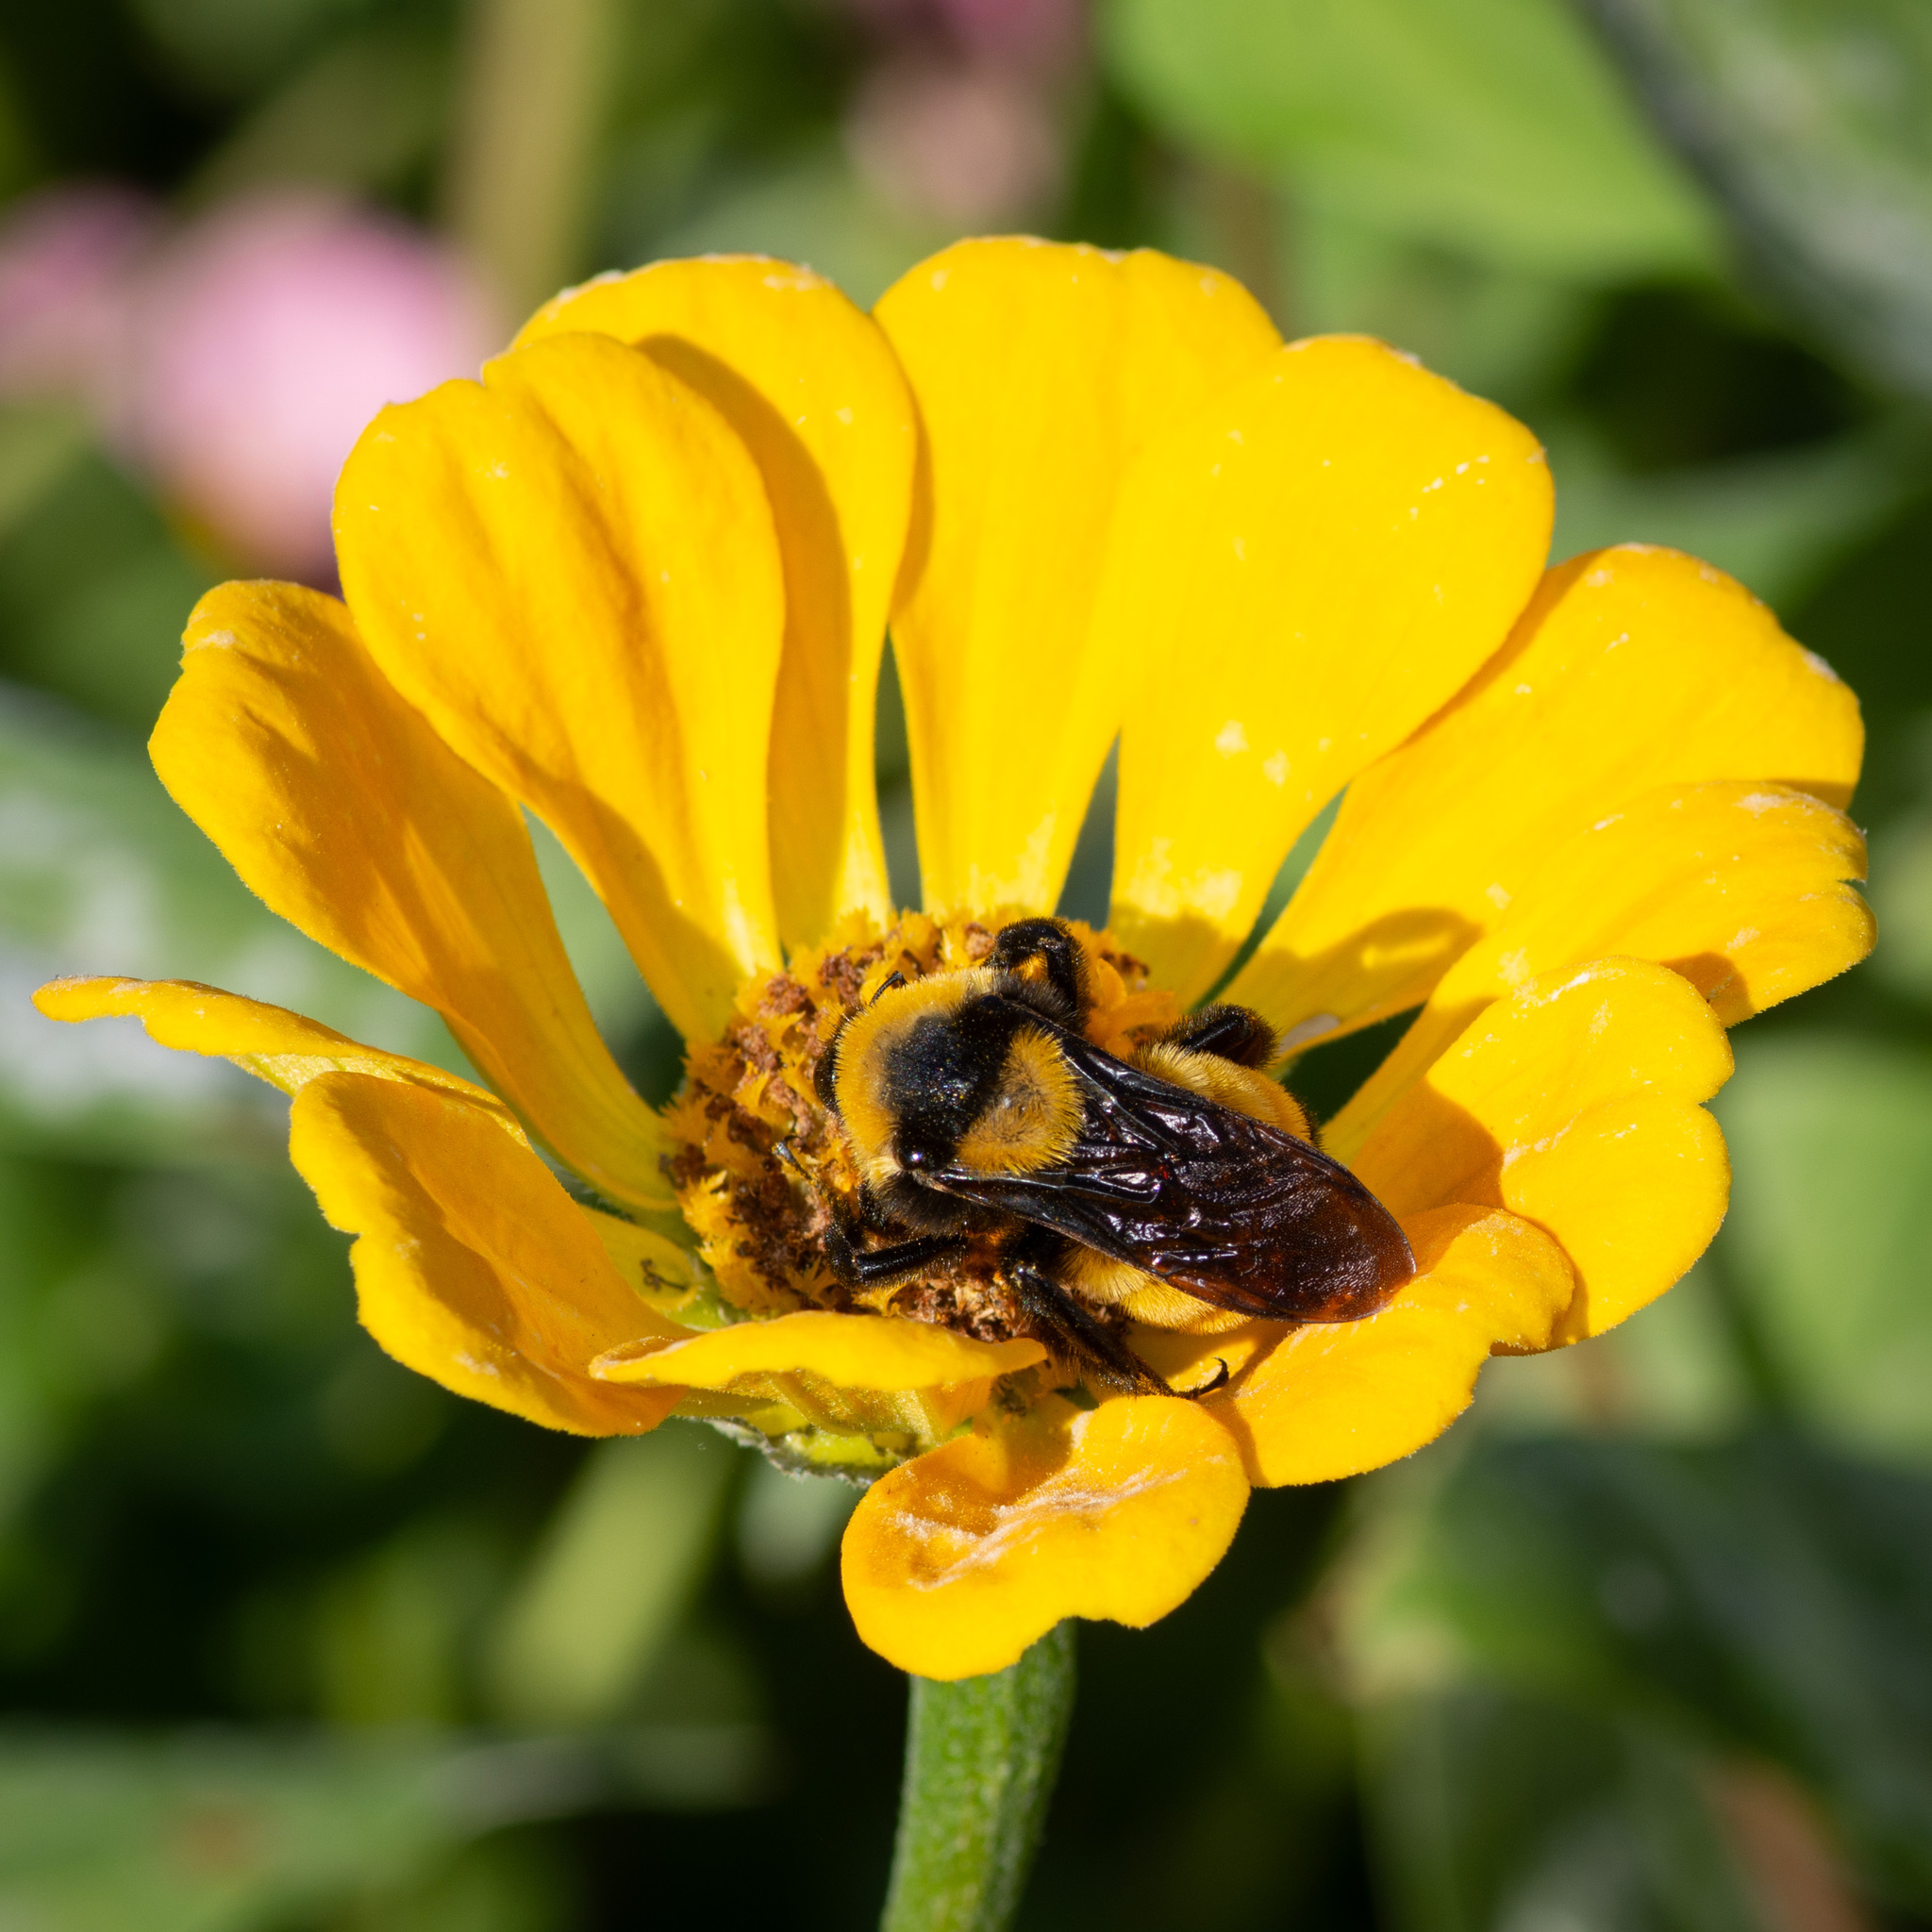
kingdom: Animalia
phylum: Arthropoda
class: Insecta
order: Hymenoptera
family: Apidae
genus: Bombus
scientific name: Bombus sonorus
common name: Sonoran bumble bee
